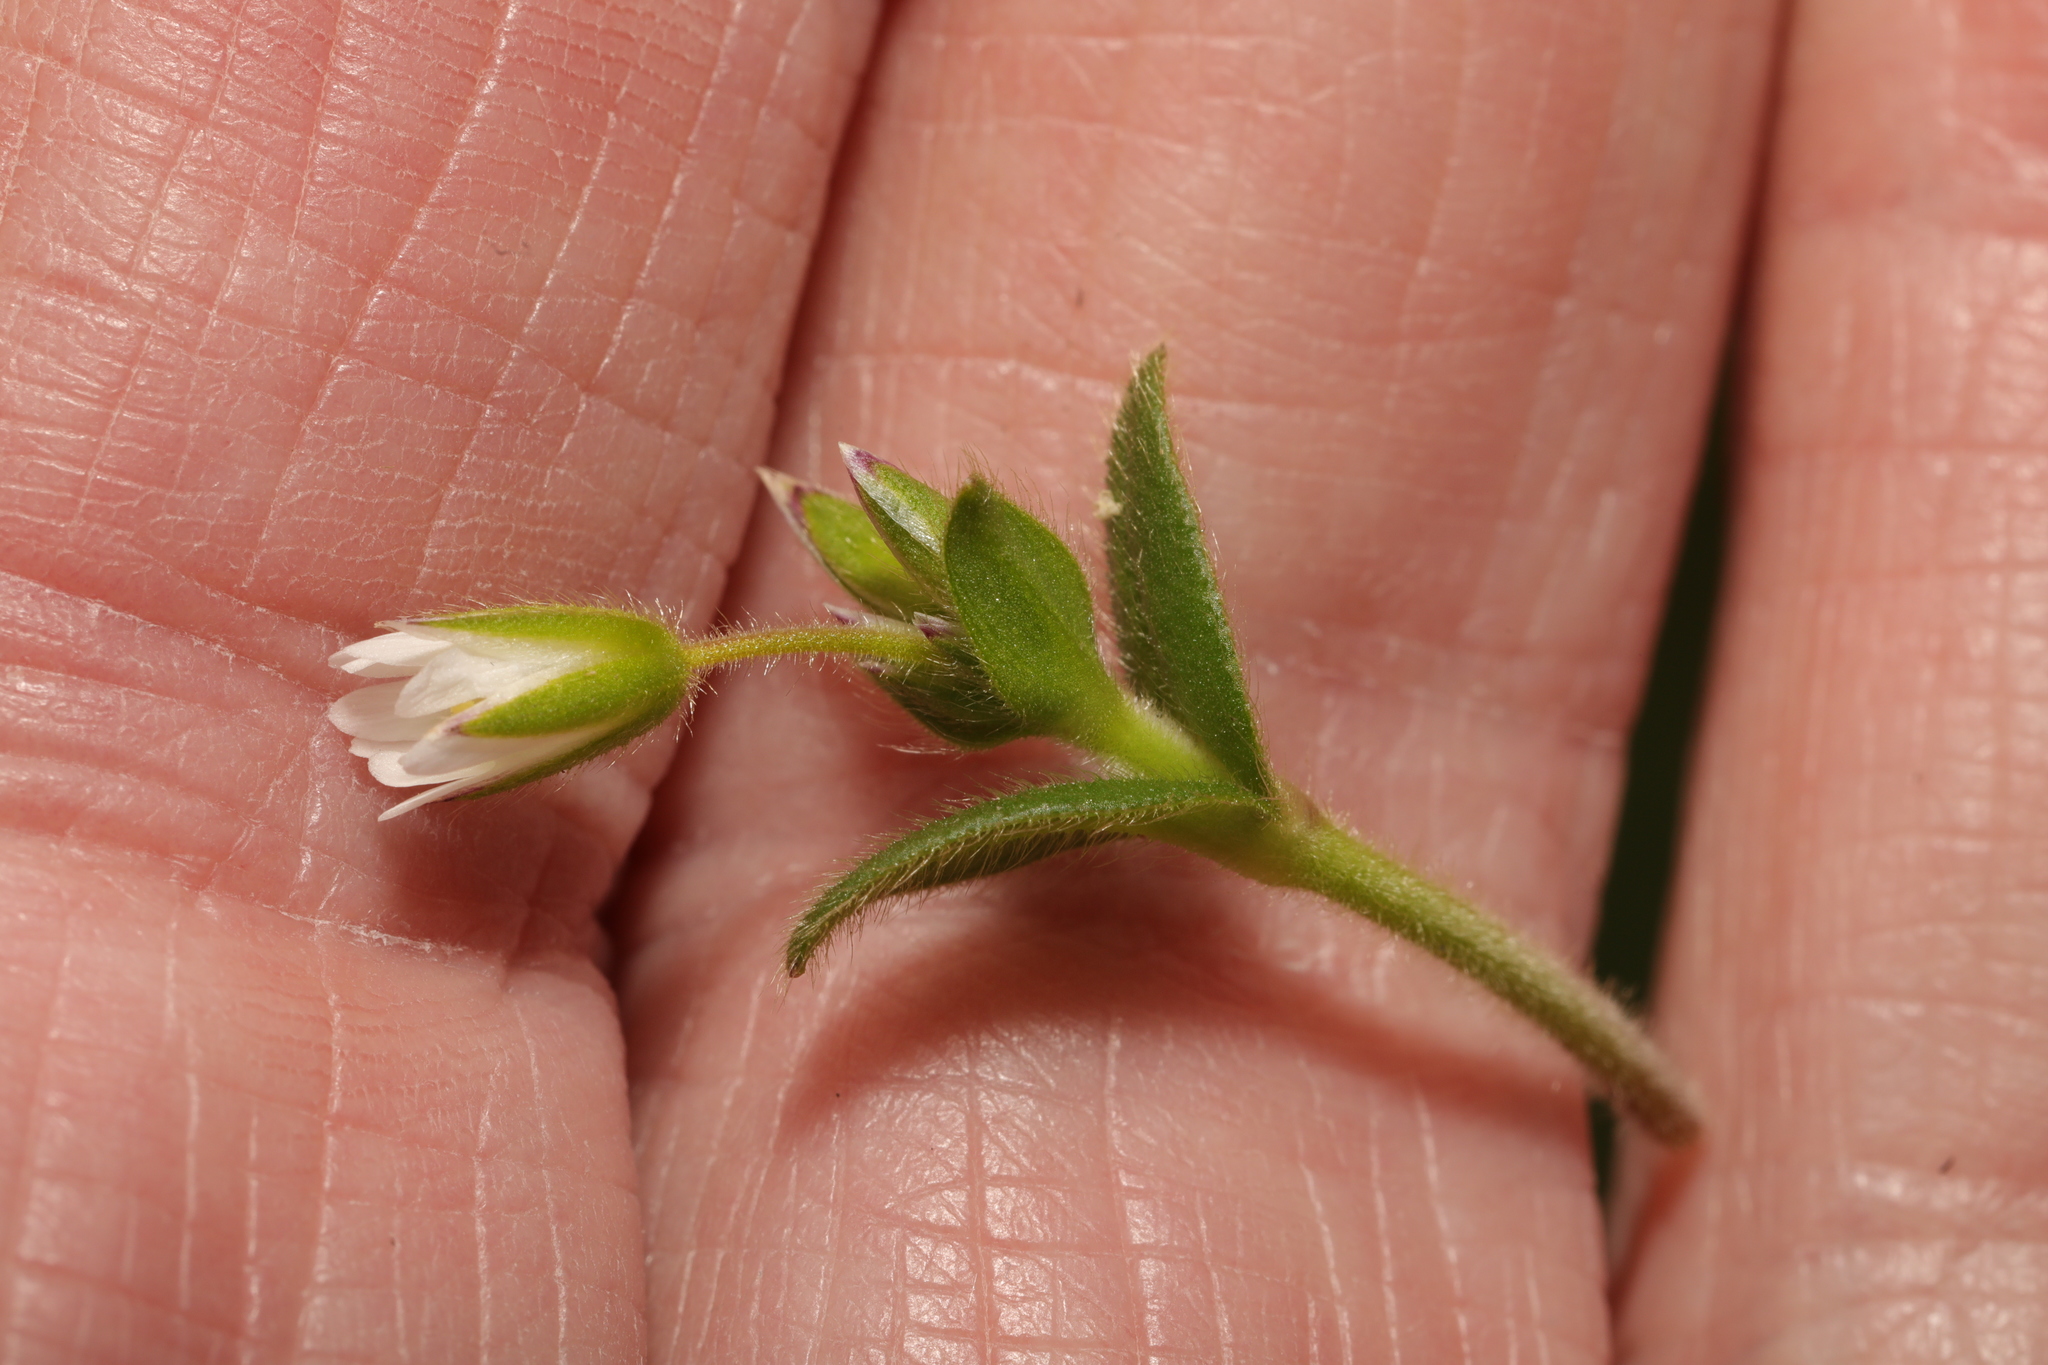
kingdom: Plantae
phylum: Tracheophyta
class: Magnoliopsida
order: Caryophyllales
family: Caryophyllaceae
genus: Cerastium
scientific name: Cerastium fontanum
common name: Common mouse-ear
